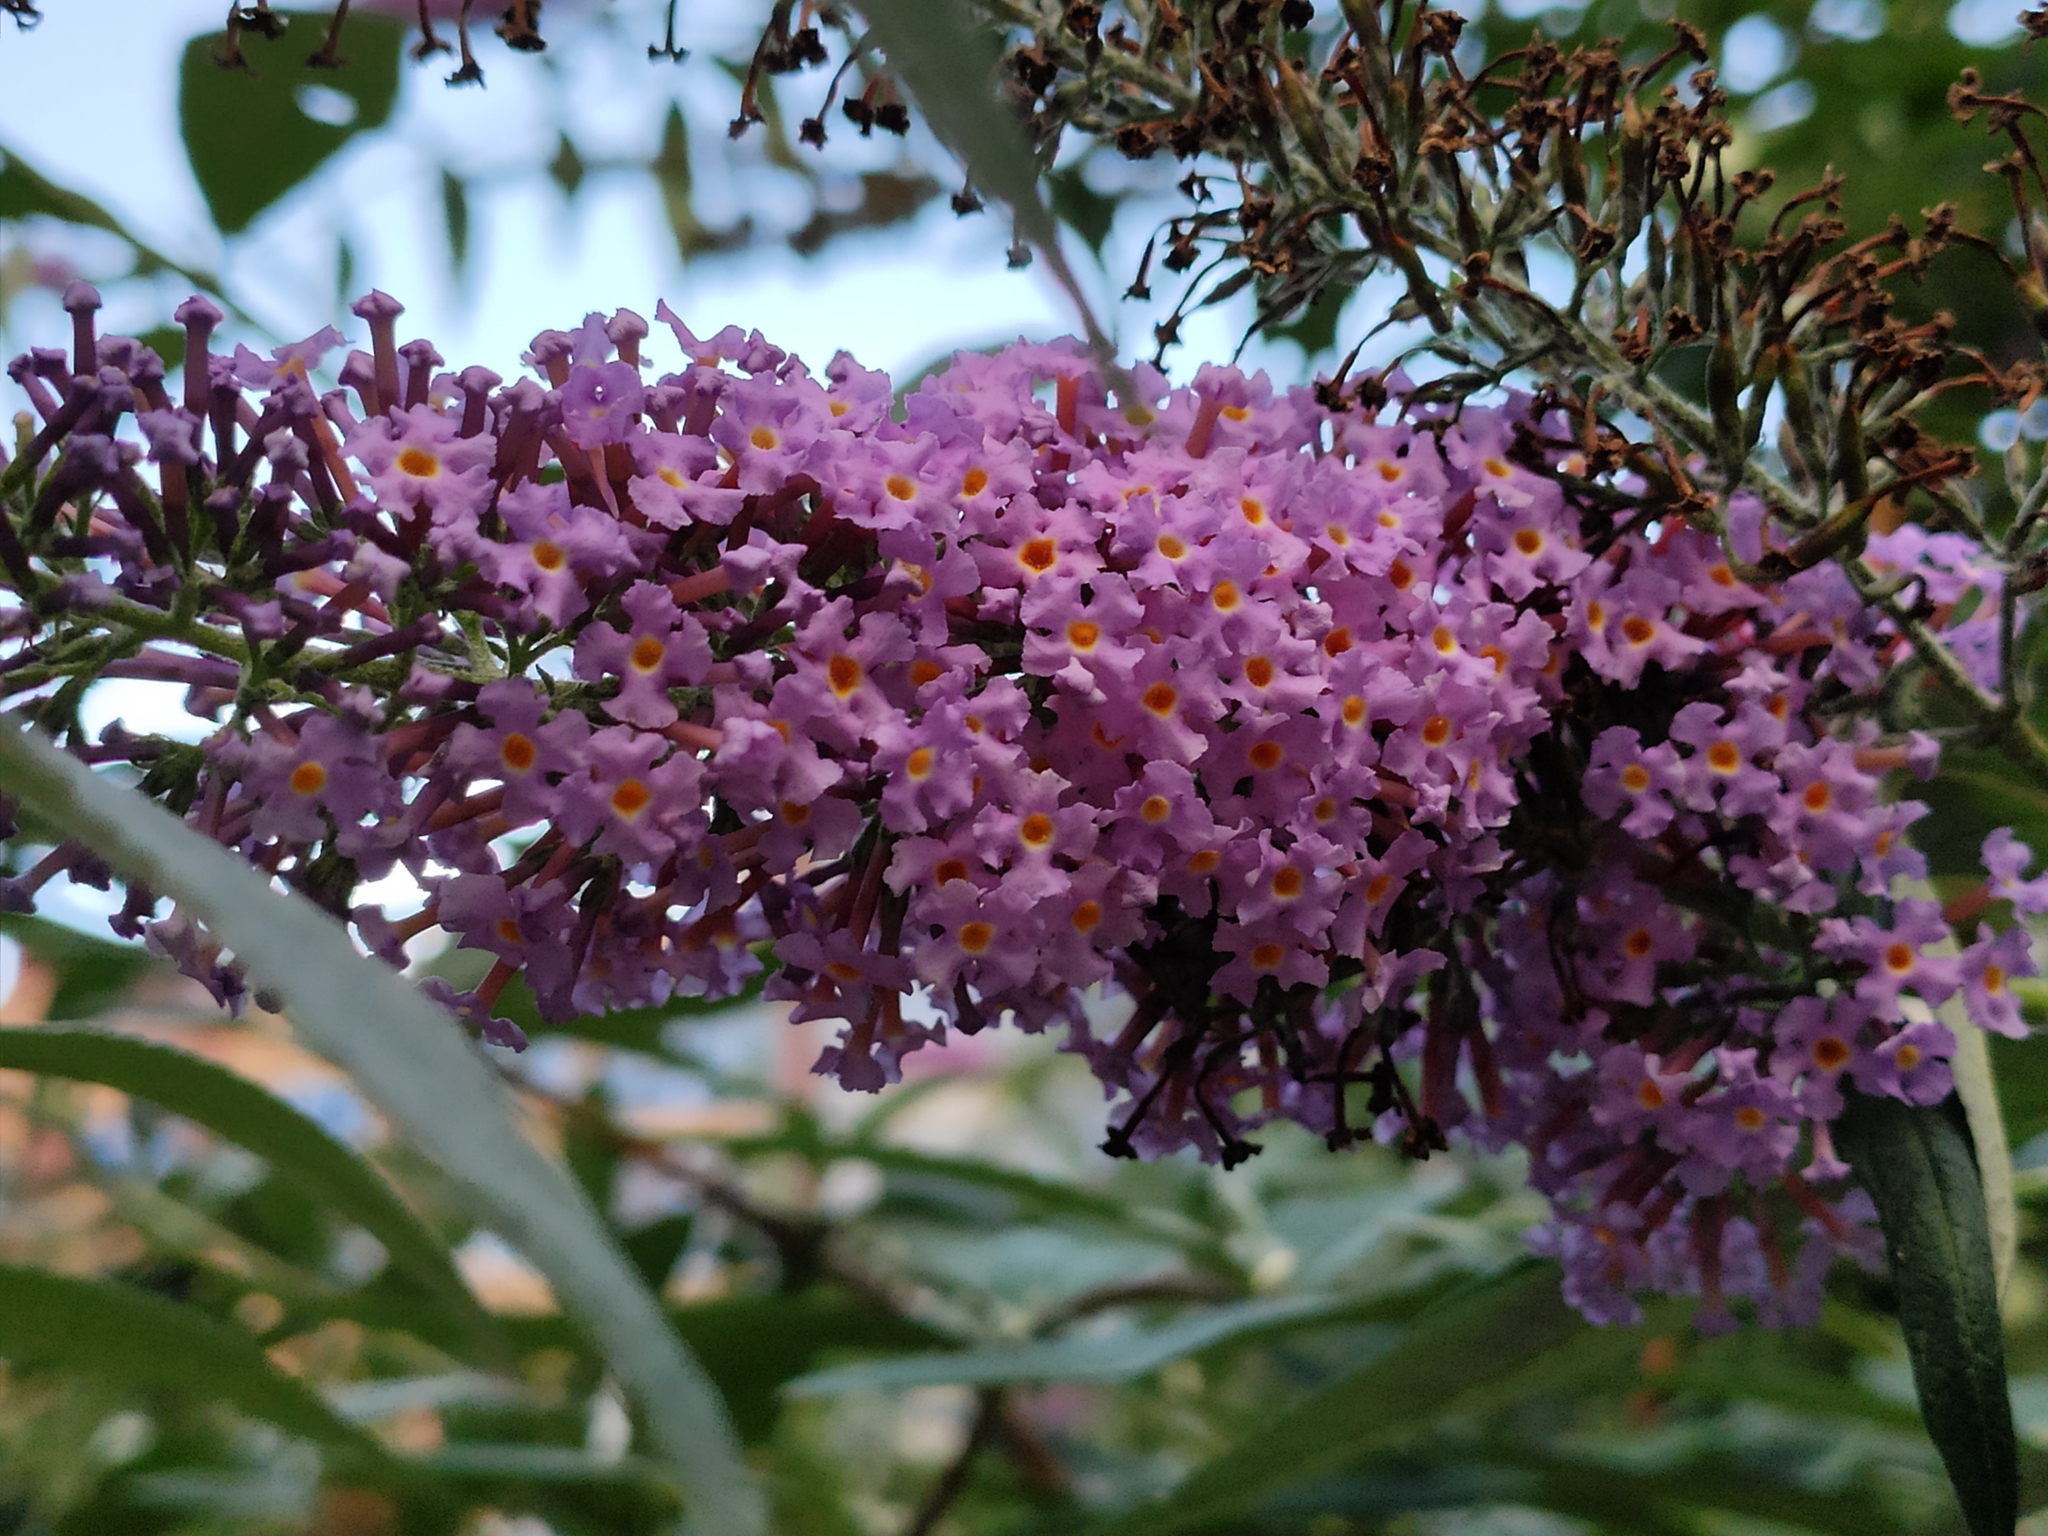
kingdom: Plantae
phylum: Tracheophyta
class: Magnoliopsida
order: Lamiales
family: Scrophulariaceae
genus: Buddleja
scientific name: Buddleja davidii
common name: Butterfly-bush
